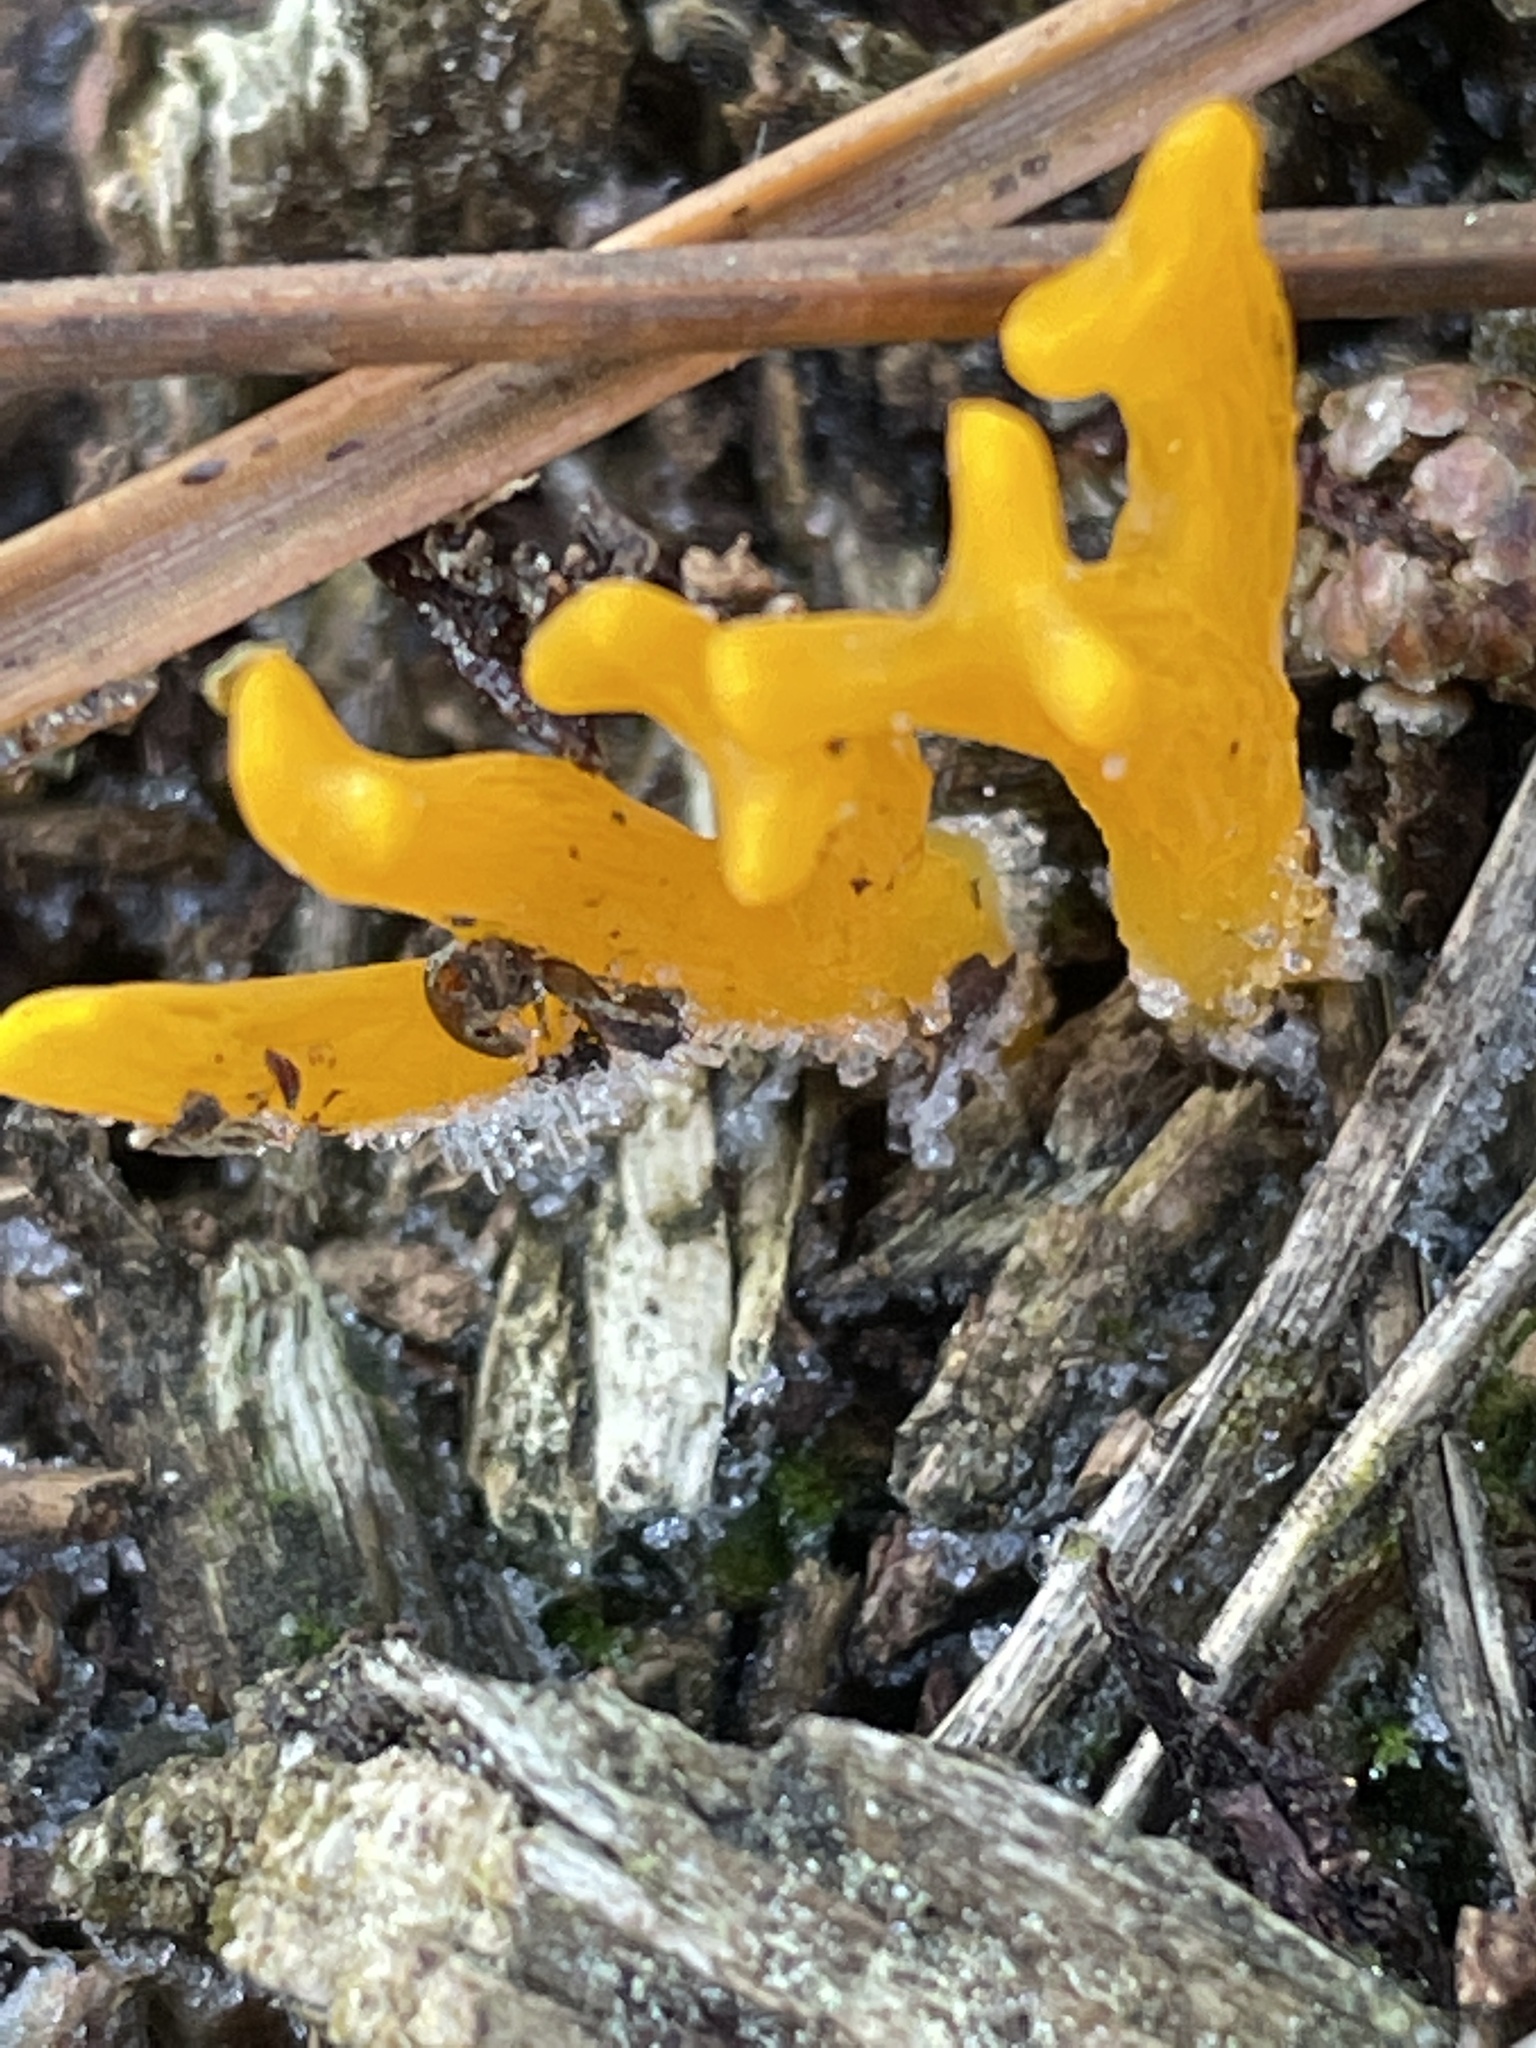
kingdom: Fungi
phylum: Basidiomycota
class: Dacrymycetes
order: Dacrymycetales
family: Dacrymycetaceae
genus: Calocera
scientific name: Calocera viscosa
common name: Yellow stagshorn
